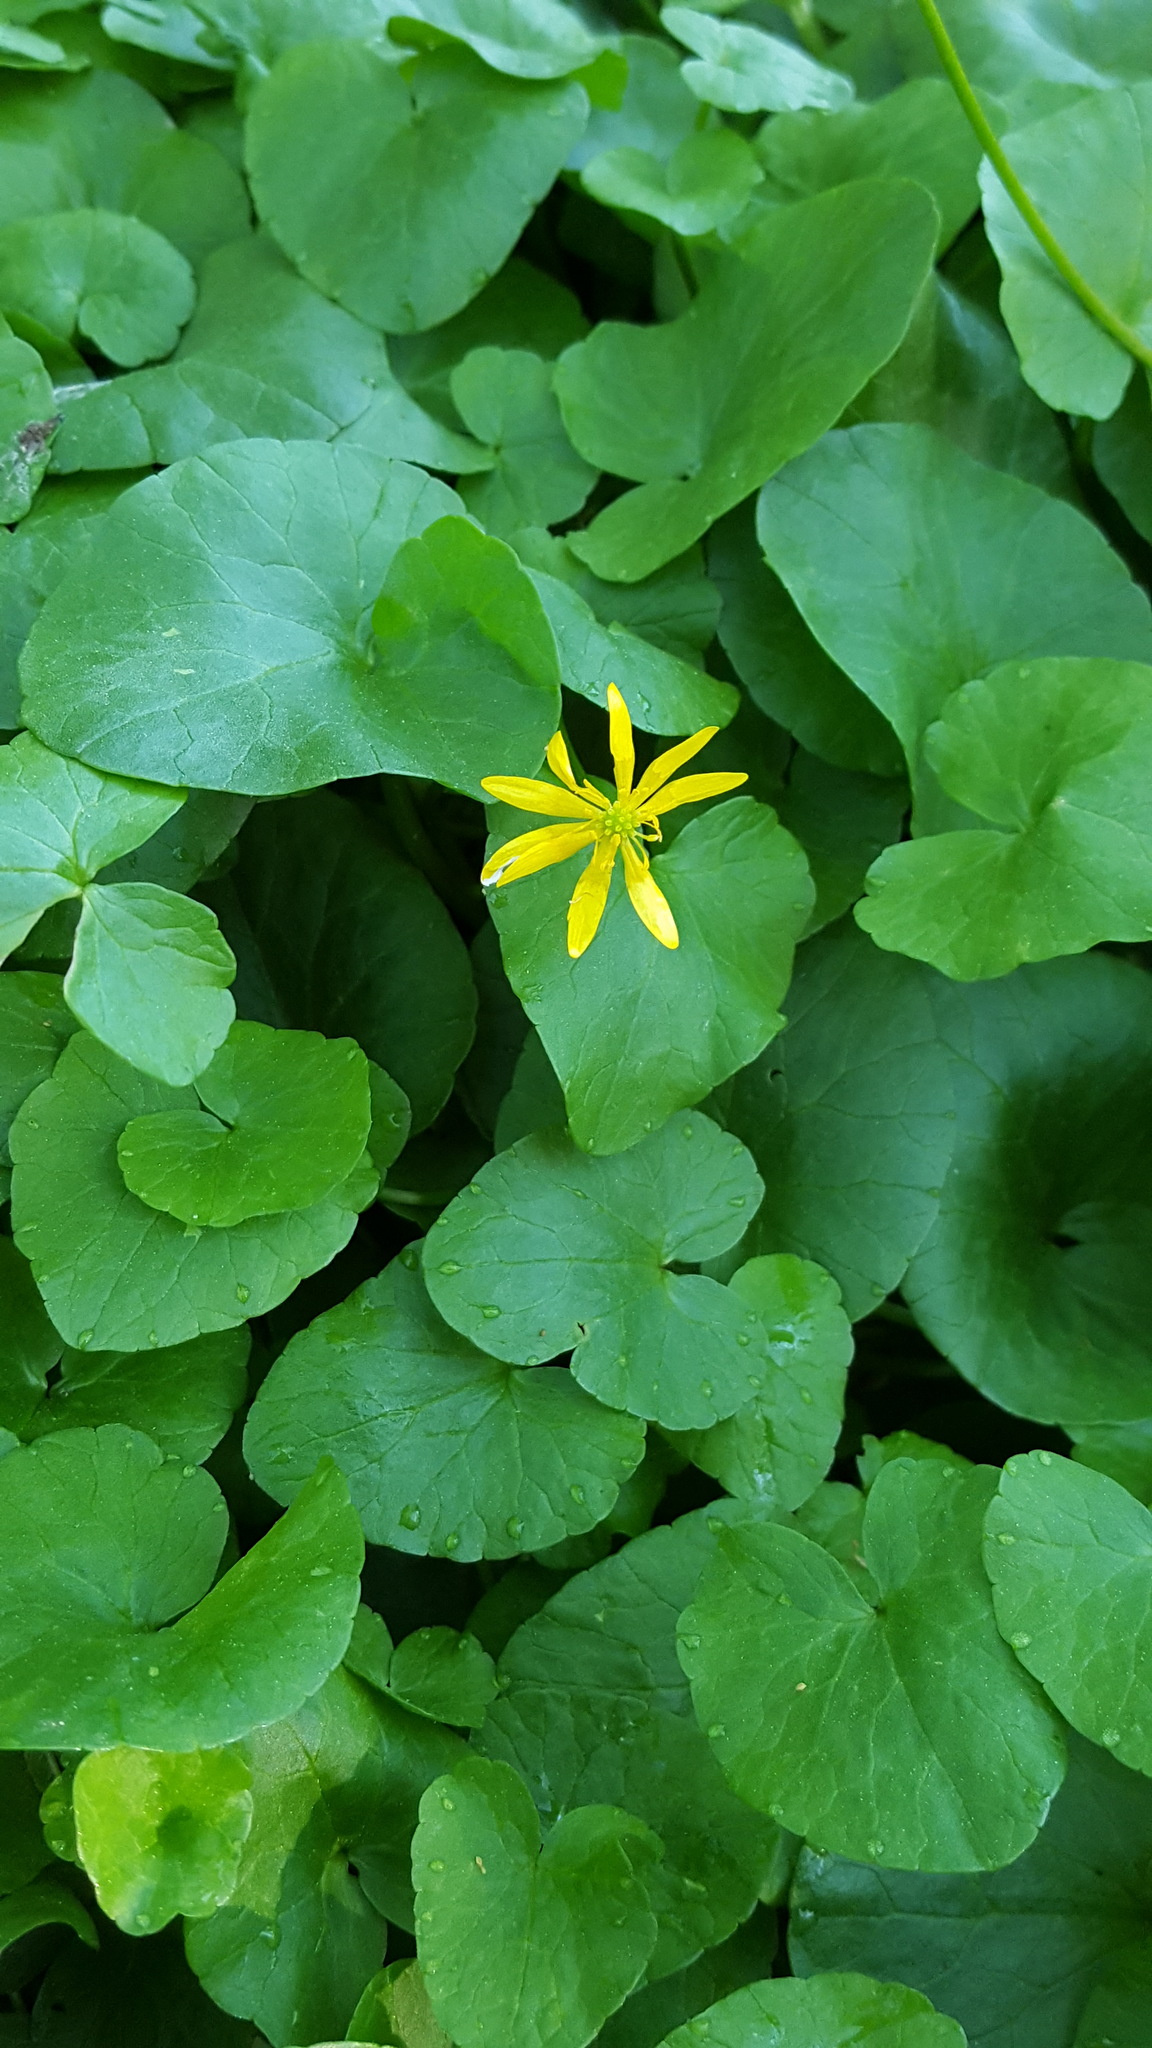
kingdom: Plantae
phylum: Tracheophyta
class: Magnoliopsida
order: Ranunculales
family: Ranunculaceae
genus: Ficaria
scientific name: Ficaria verna
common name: Lesser celandine
